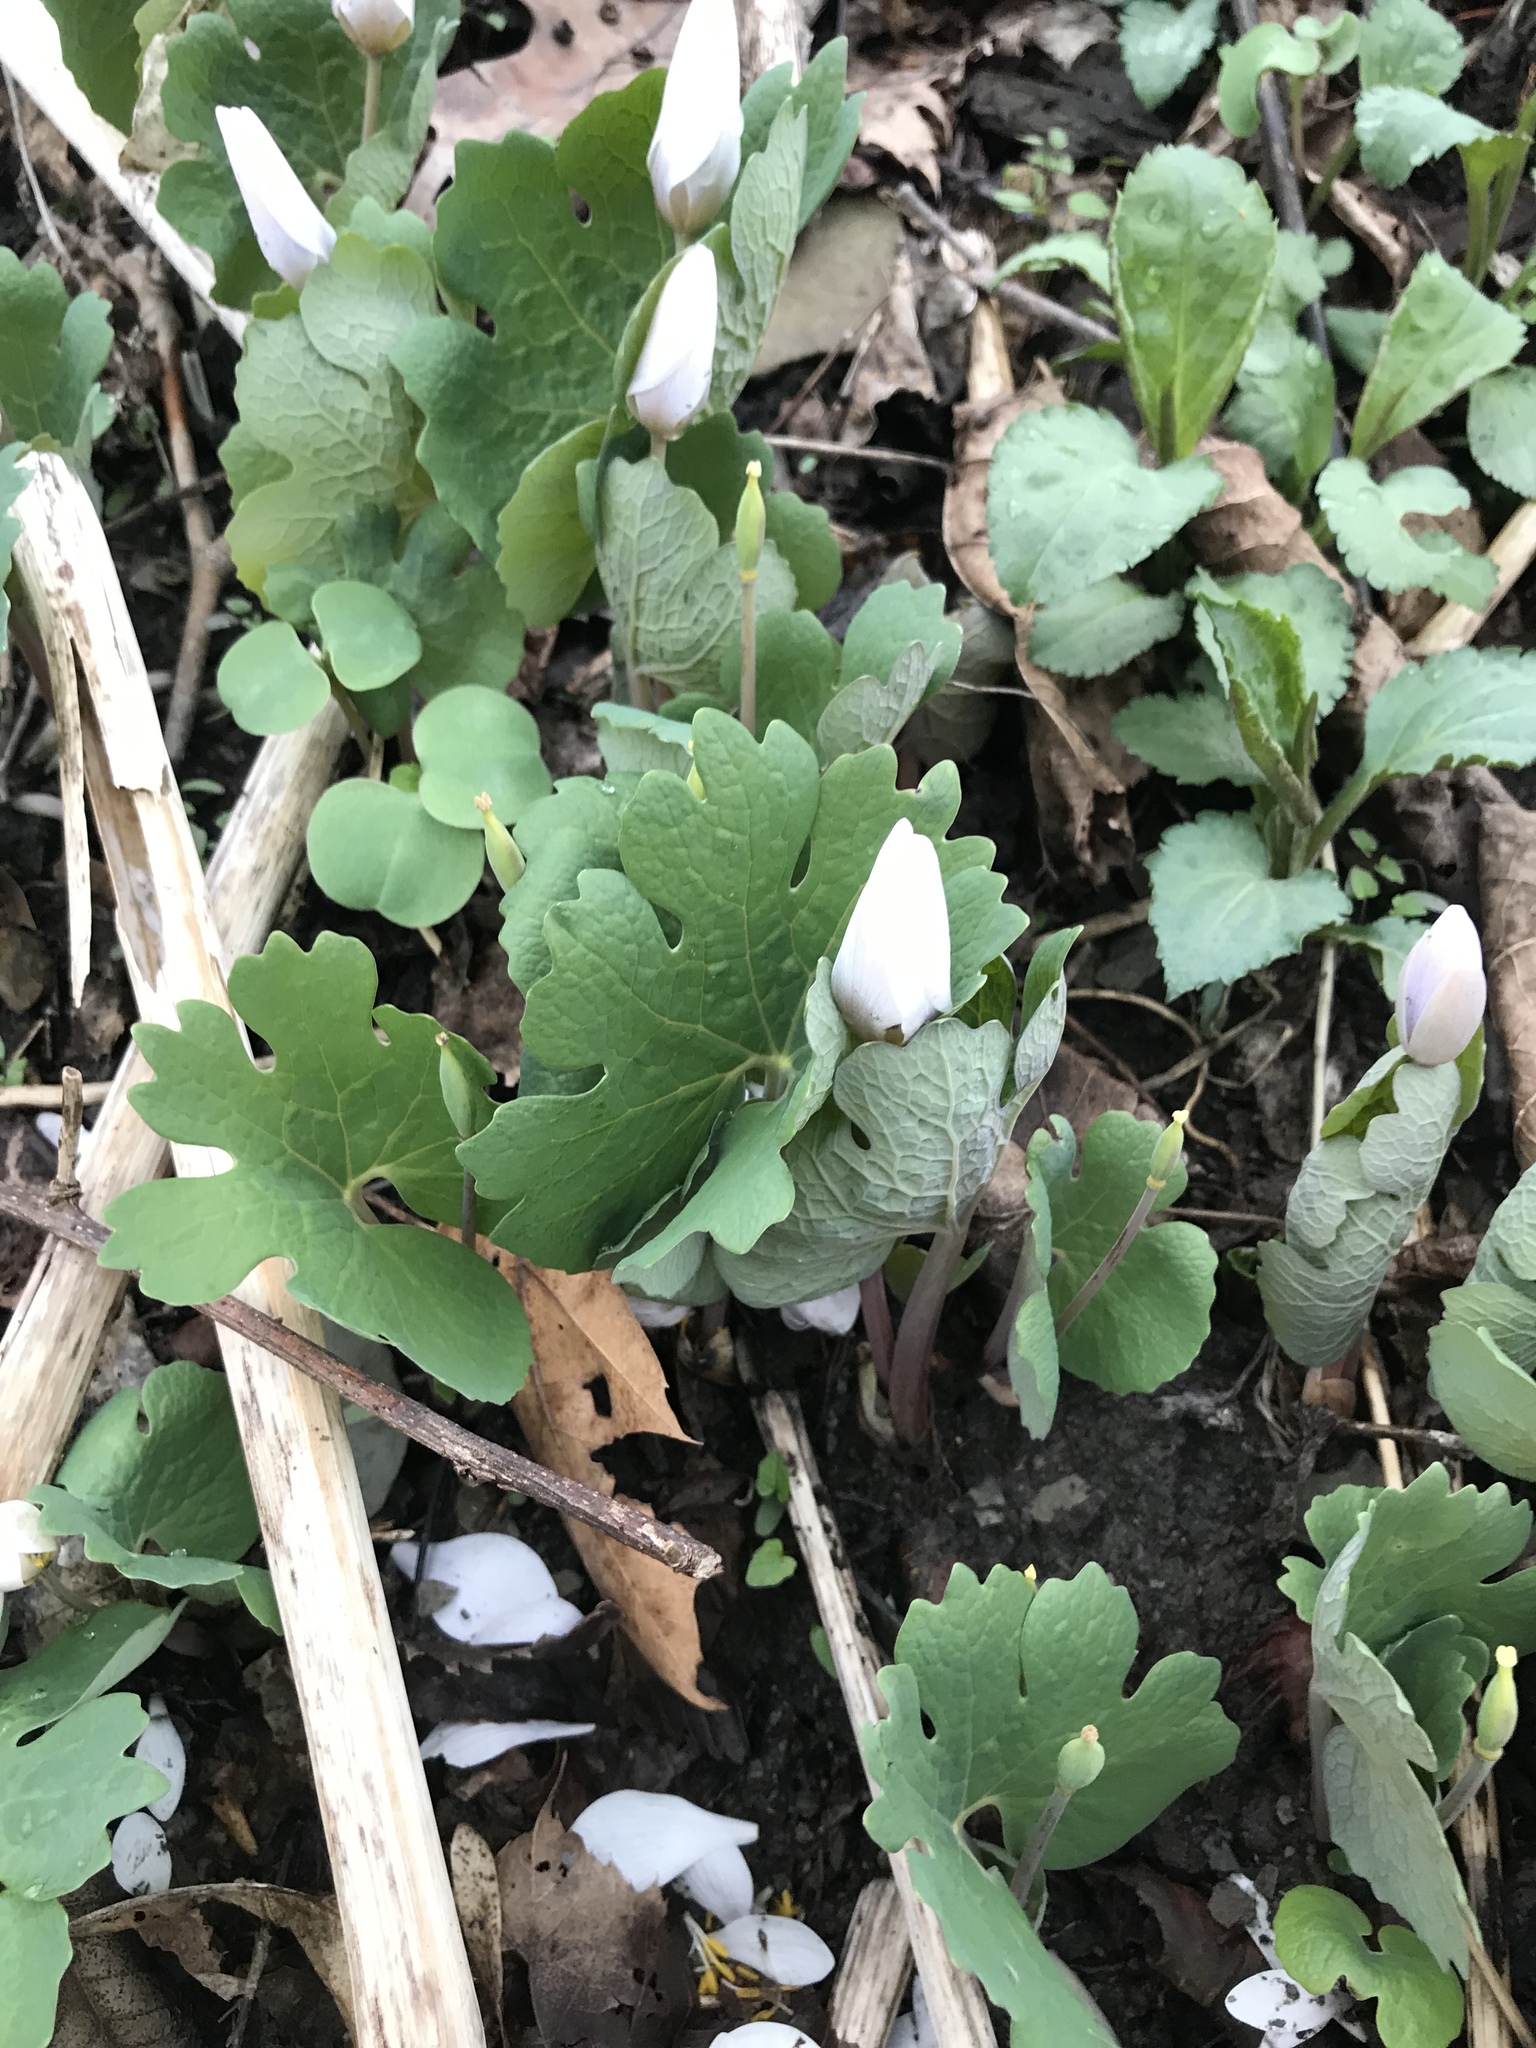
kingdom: Plantae
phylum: Tracheophyta
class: Magnoliopsida
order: Ranunculales
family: Papaveraceae
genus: Sanguinaria
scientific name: Sanguinaria canadensis
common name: Bloodroot
